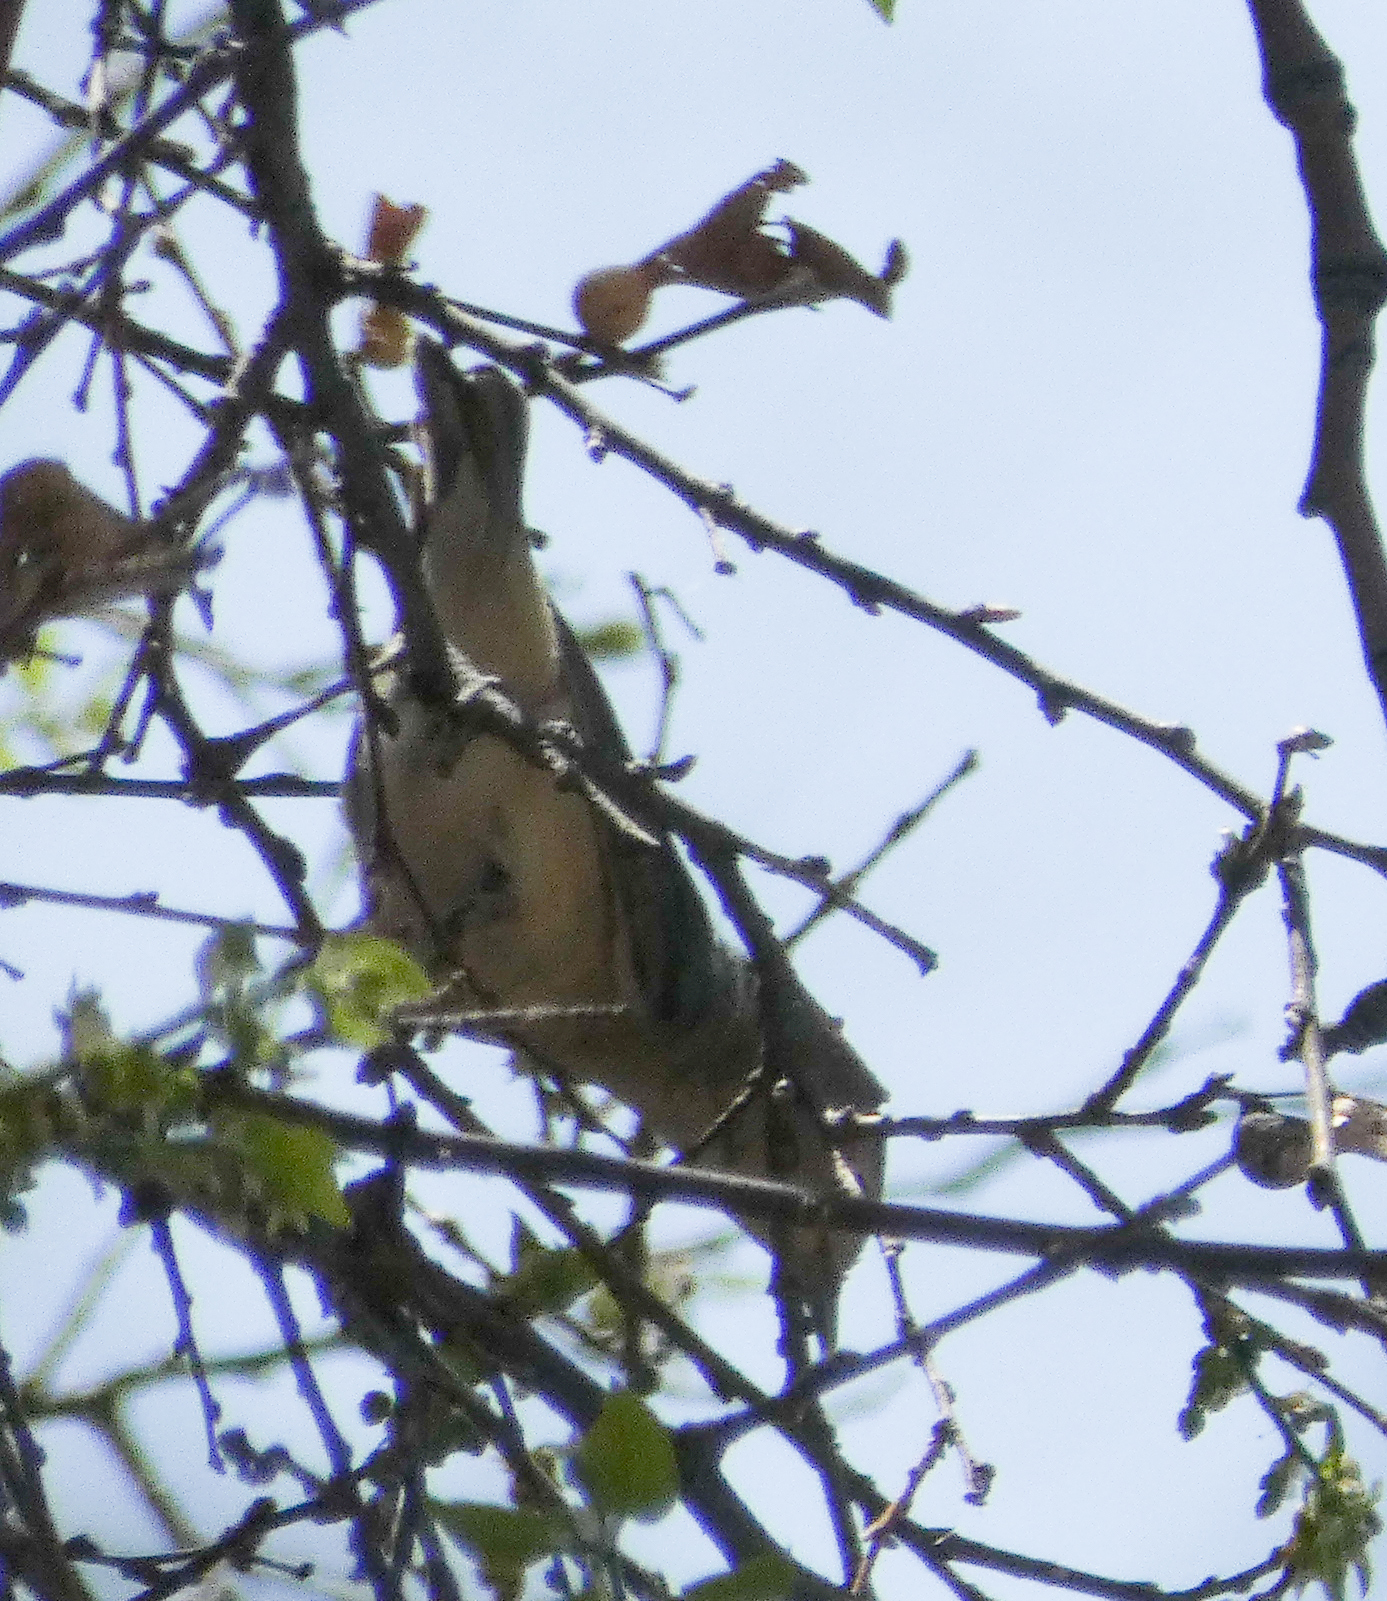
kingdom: Animalia
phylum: Chordata
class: Aves
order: Passeriformes
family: Parulidae
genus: Leiothlypis
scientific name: Leiothlypis luciae
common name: Lucy's warbler
